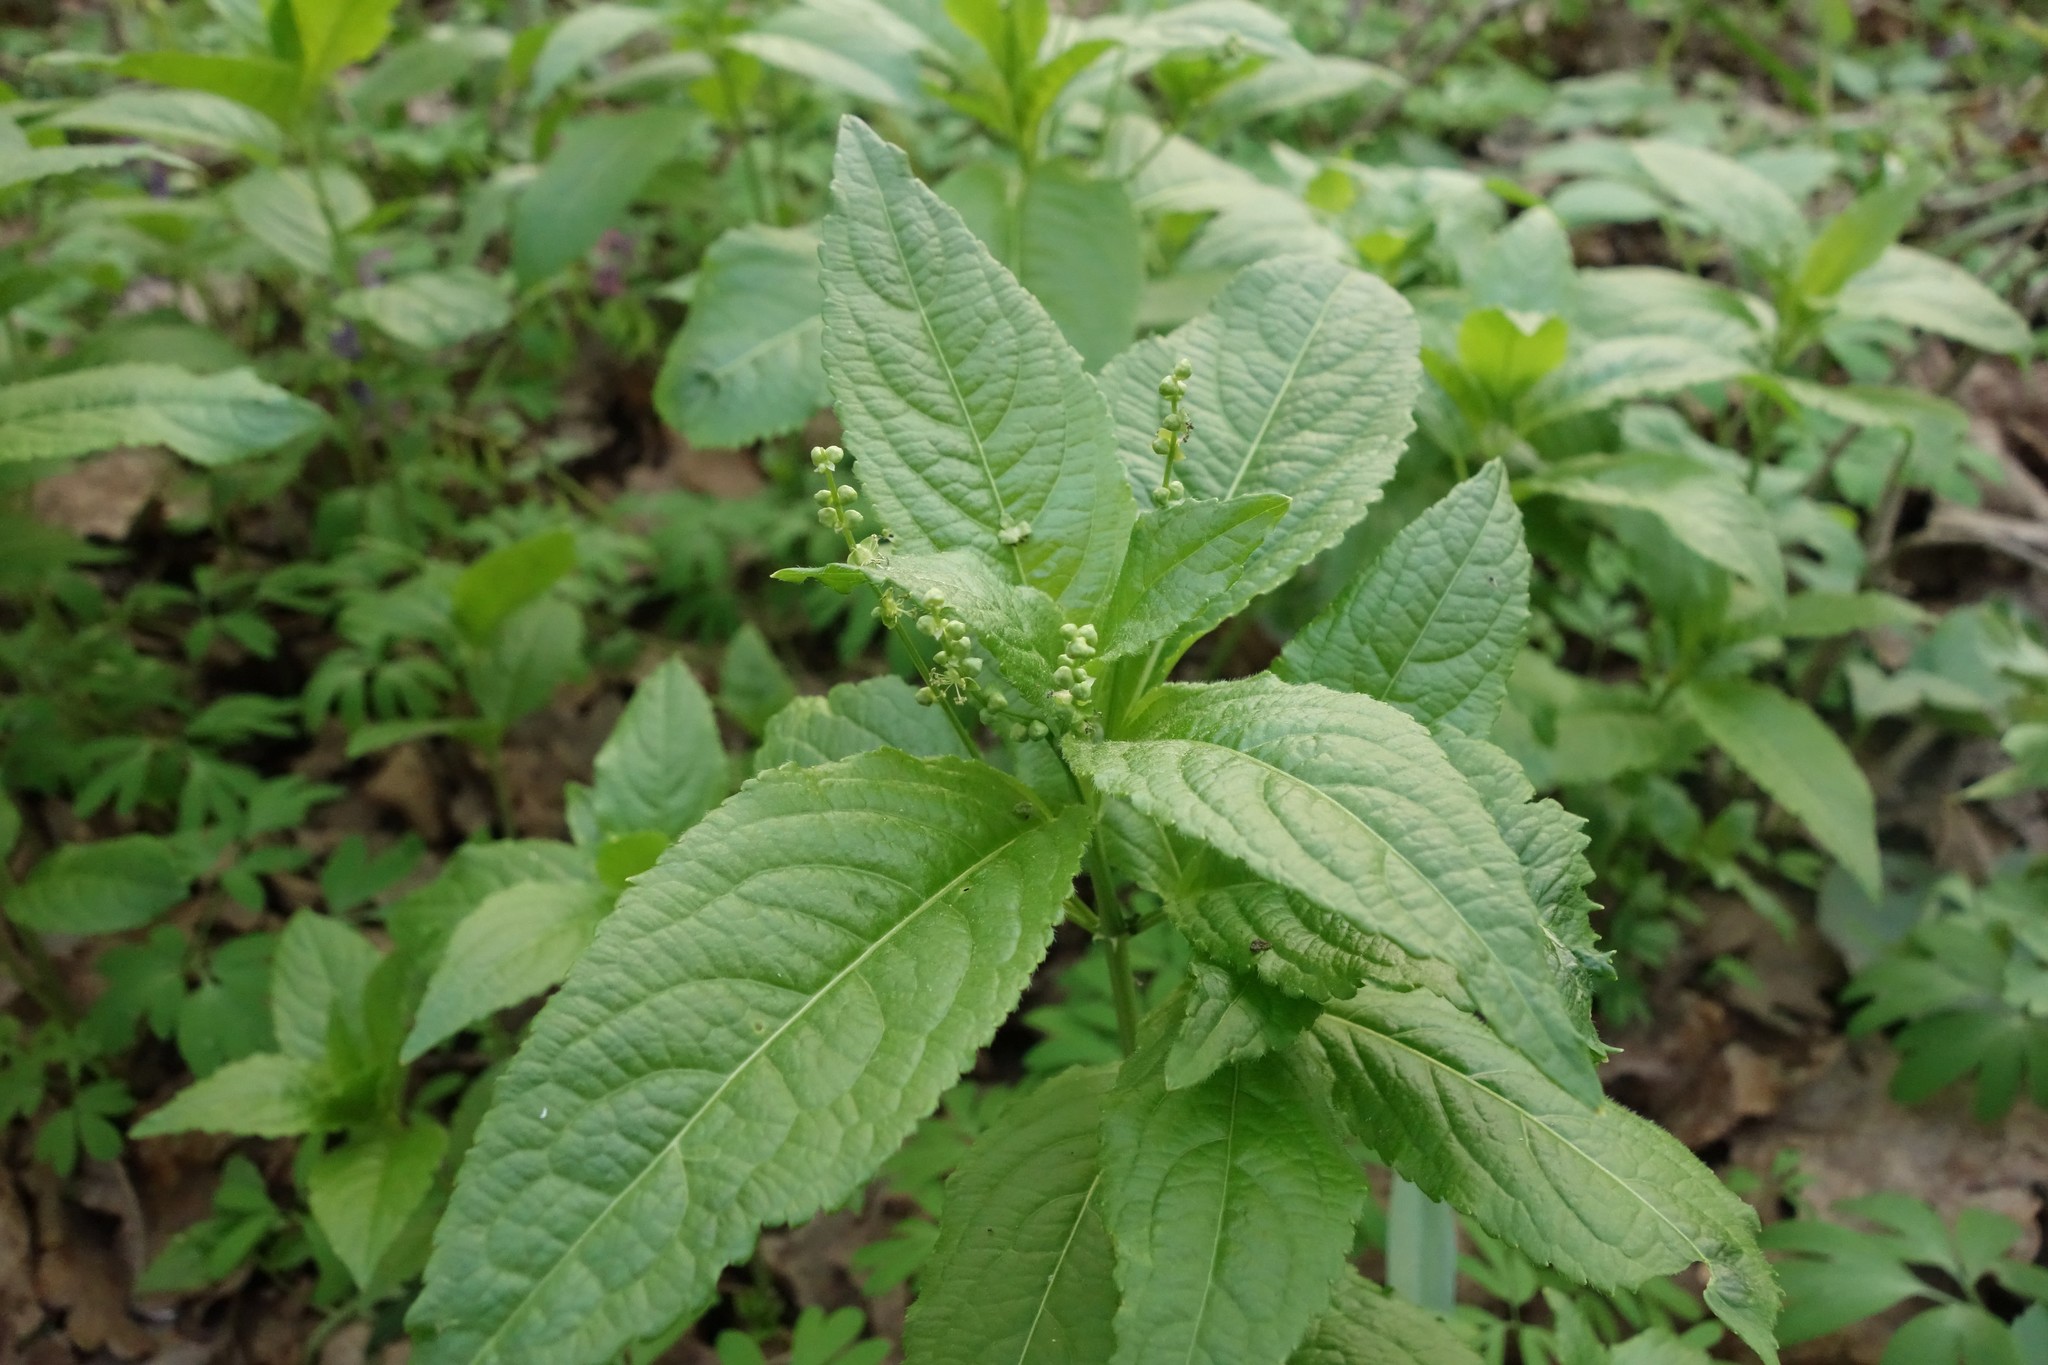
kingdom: Plantae
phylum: Tracheophyta
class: Magnoliopsida
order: Malpighiales
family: Euphorbiaceae
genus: Mercurialis
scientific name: Mercurialis perennis
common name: Dog mercury
